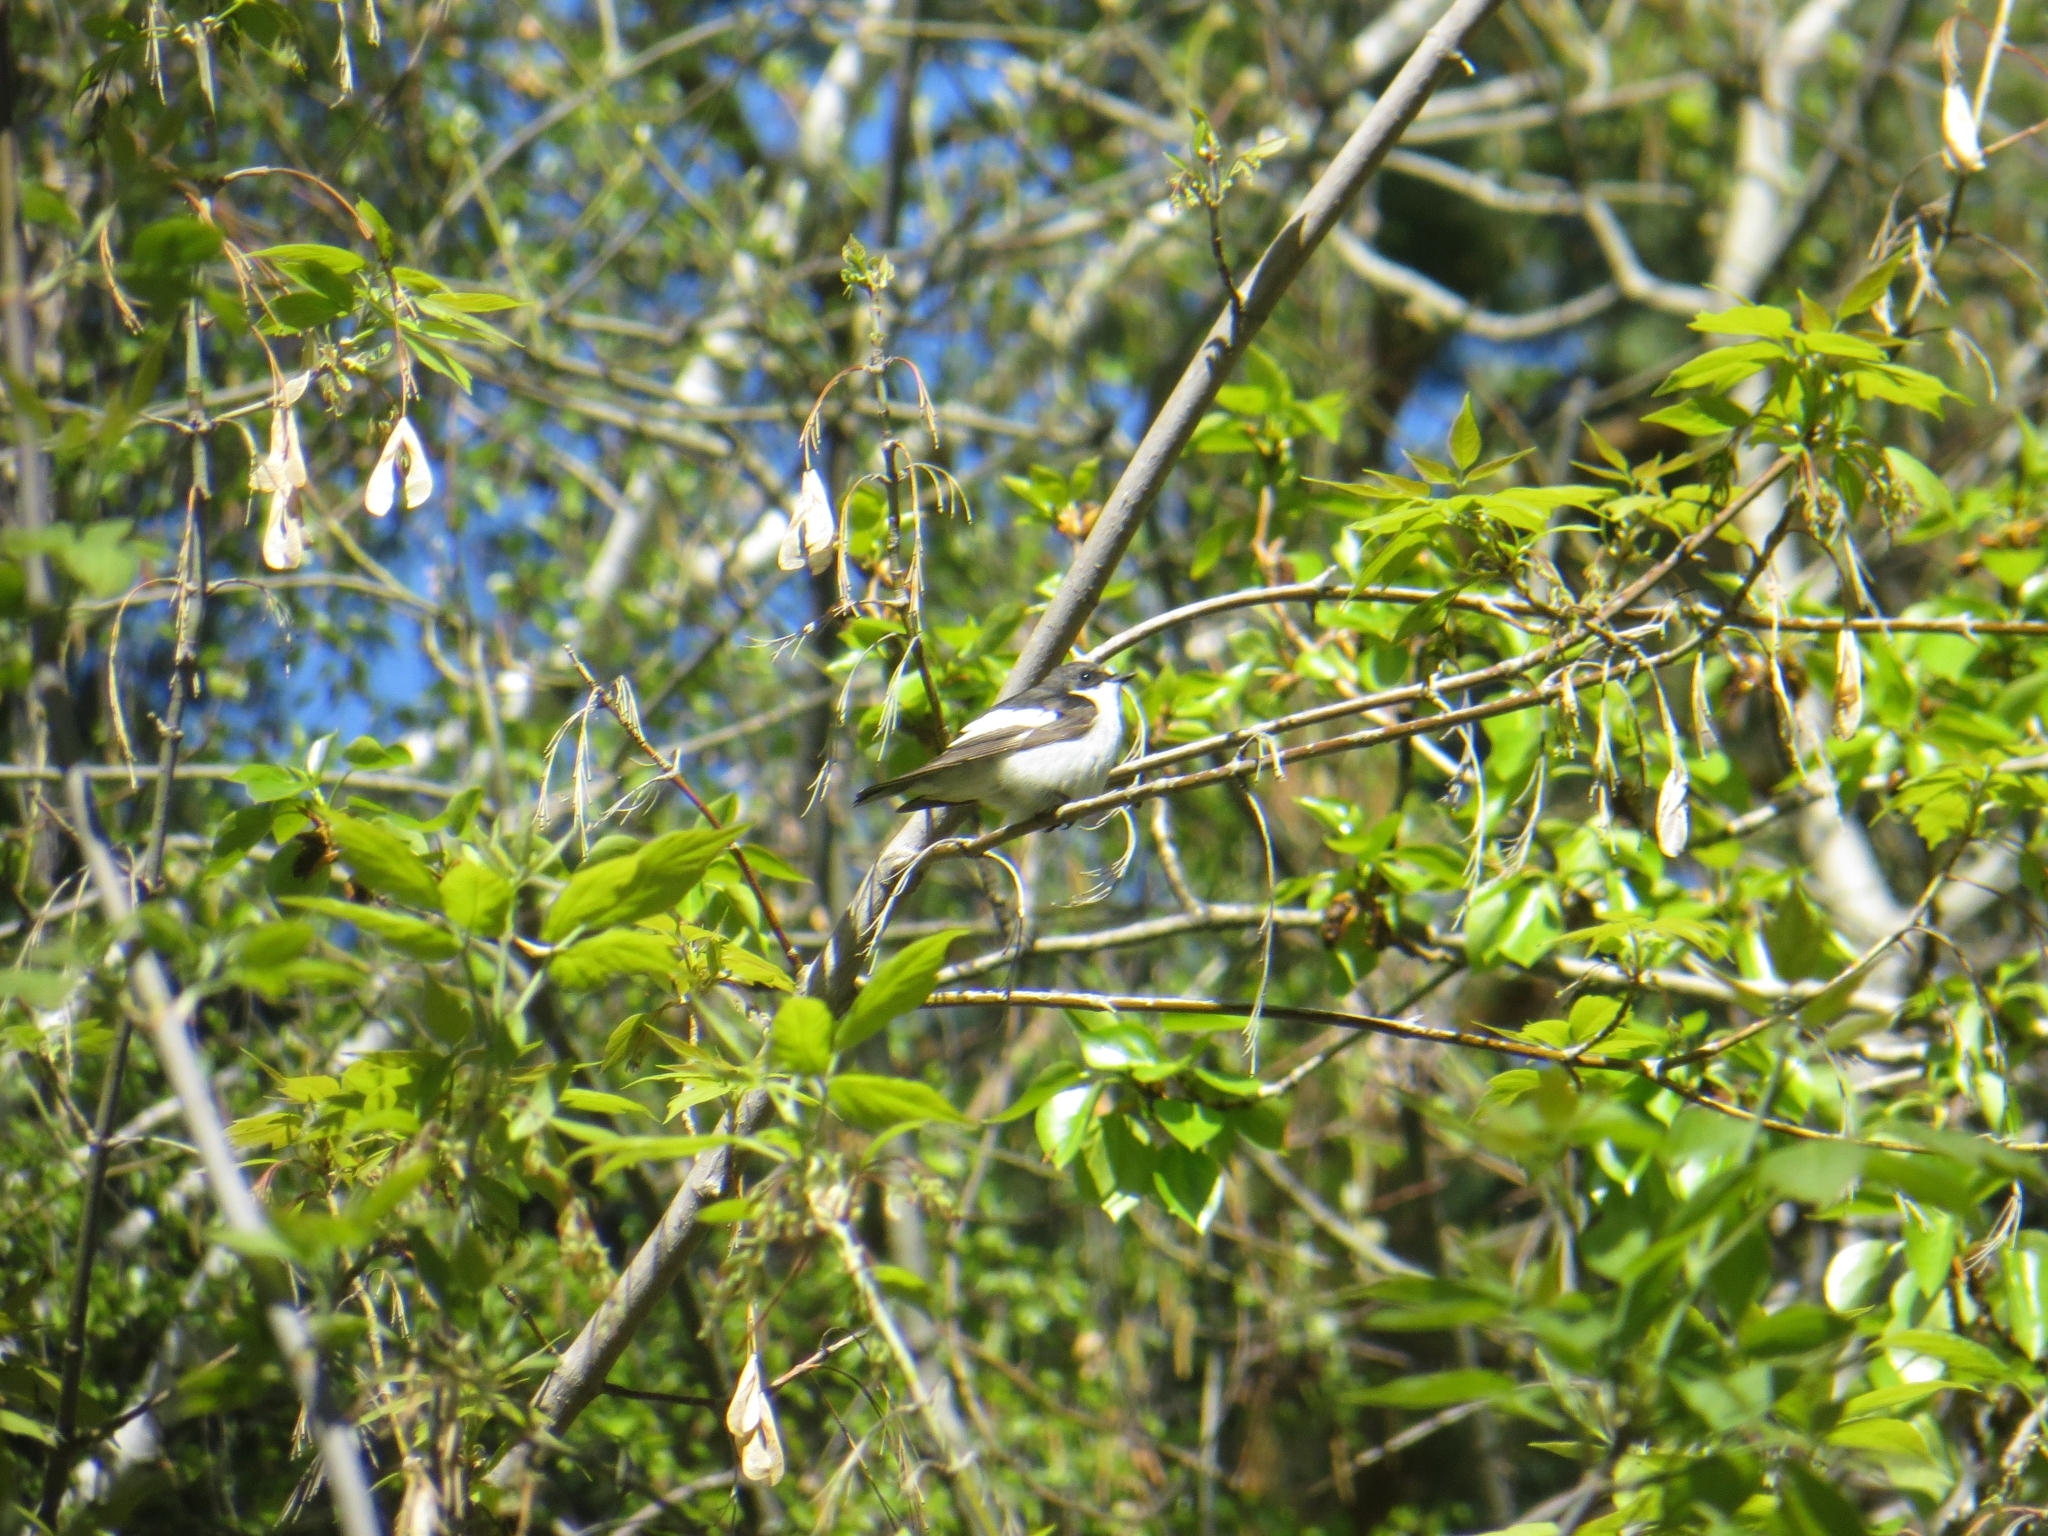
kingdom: Animalia
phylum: Chordata
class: Aves
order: Passeriformes
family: Muscicapidae
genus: Ficedula
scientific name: Ficedula hypoleuca
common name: European pied flycatcher
